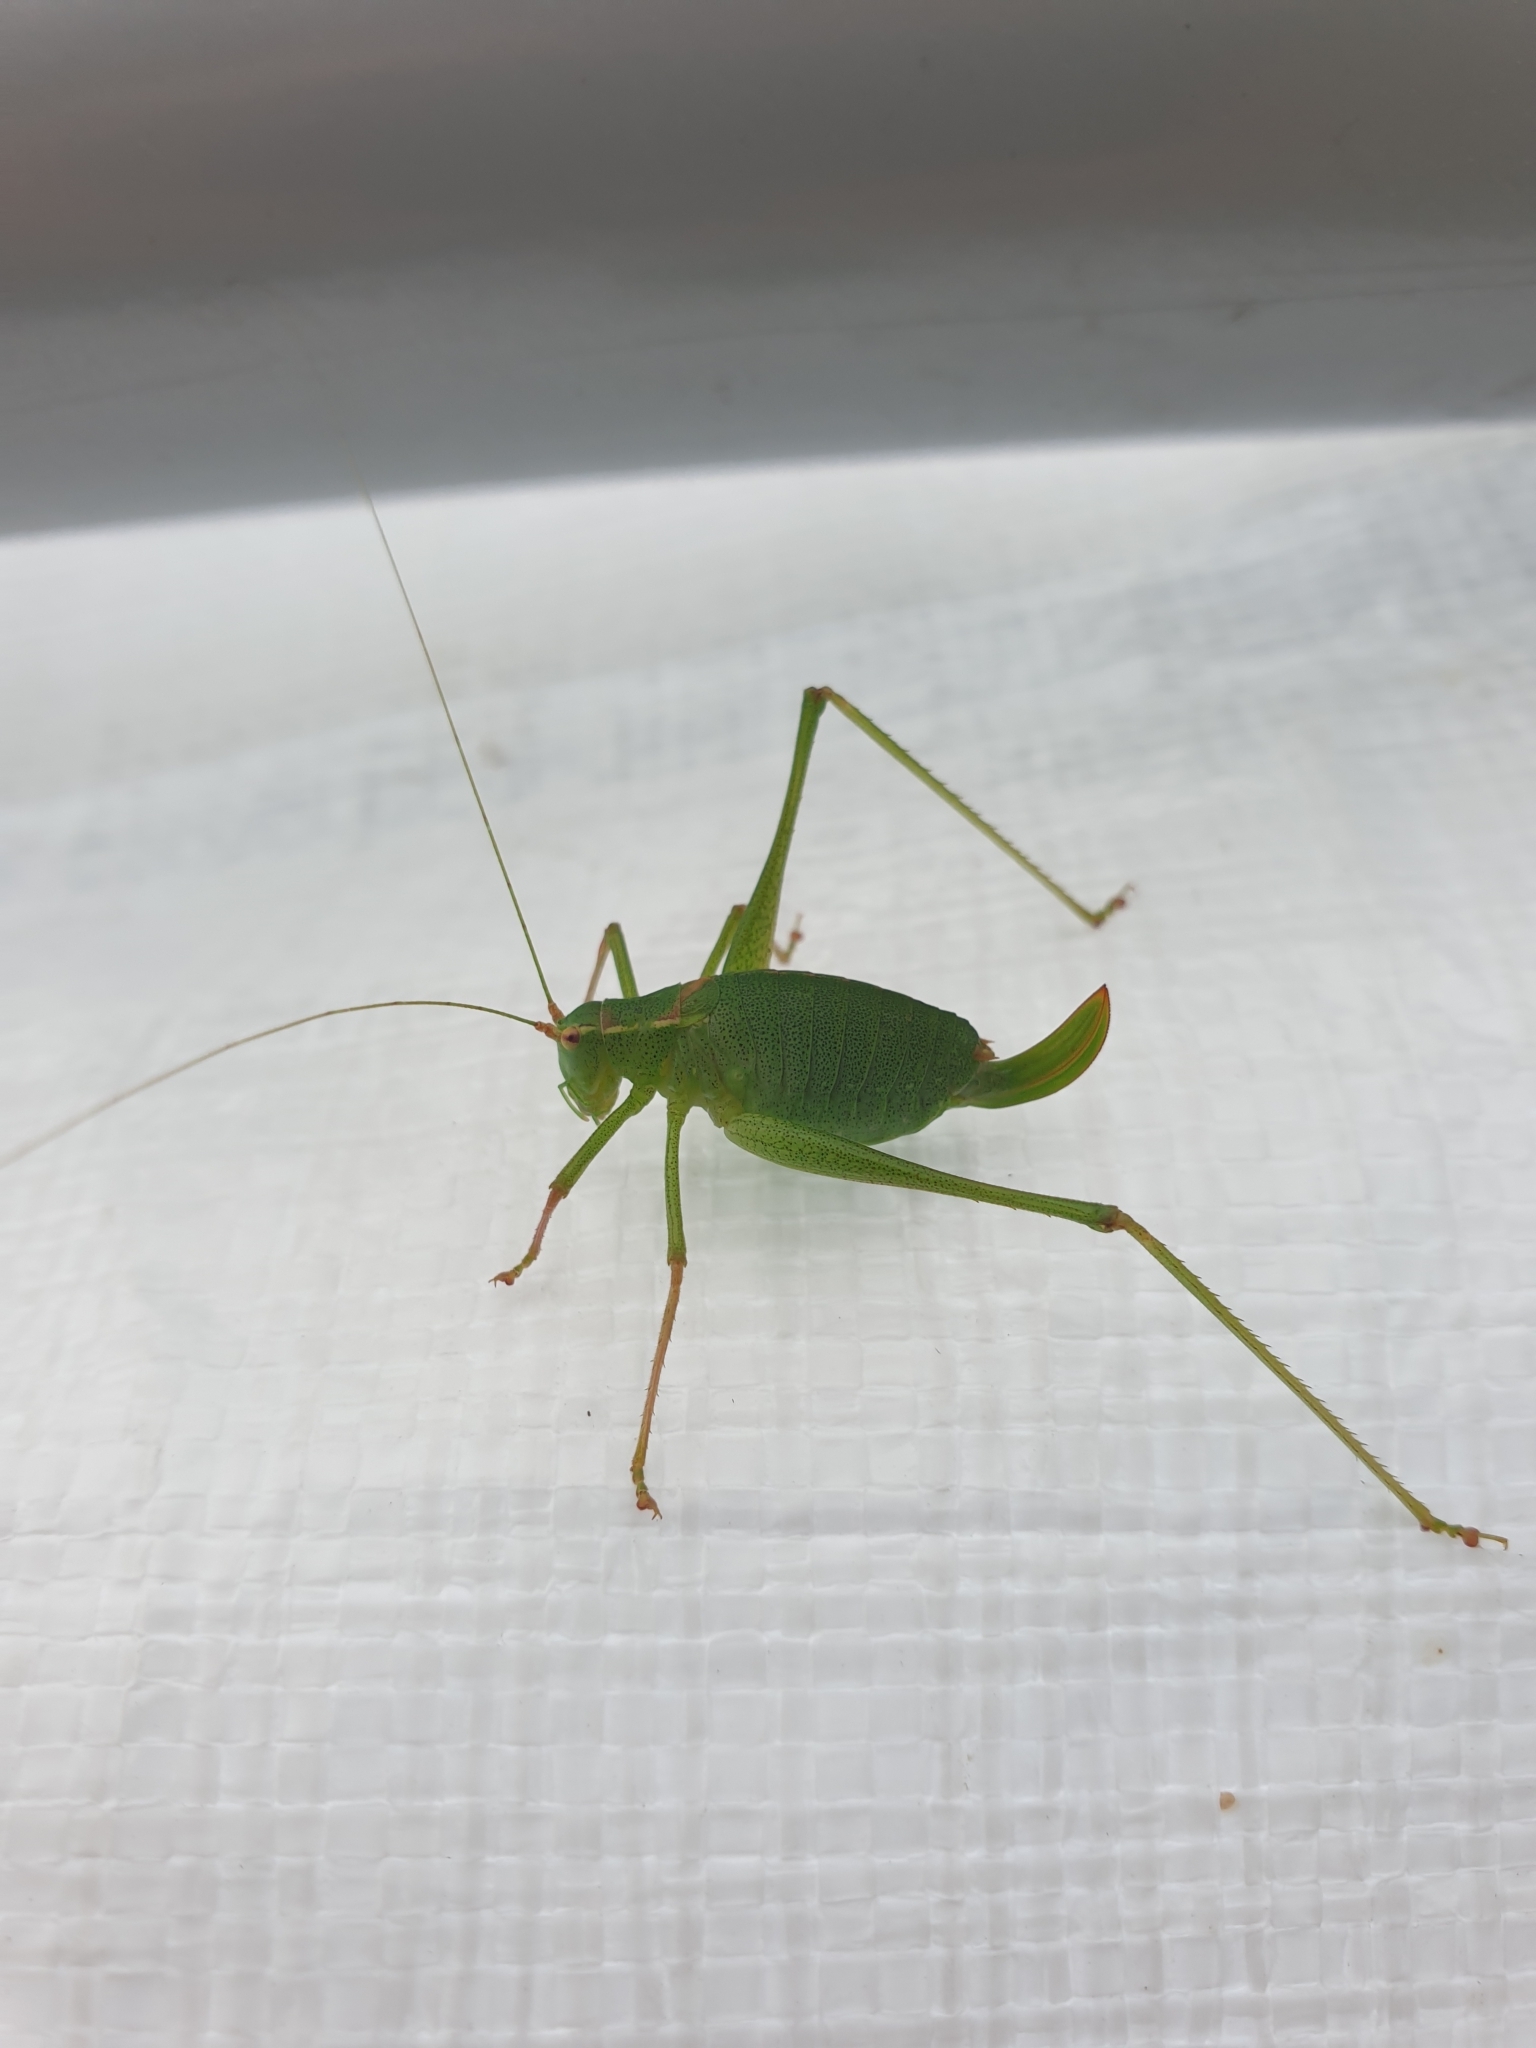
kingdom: Animalia
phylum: Arthropoda
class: Insecta
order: Orthoptera
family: Tettigoniidae
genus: Leptophyes
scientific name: Leptophyes punctatissima
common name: Speckled bush-cricket
